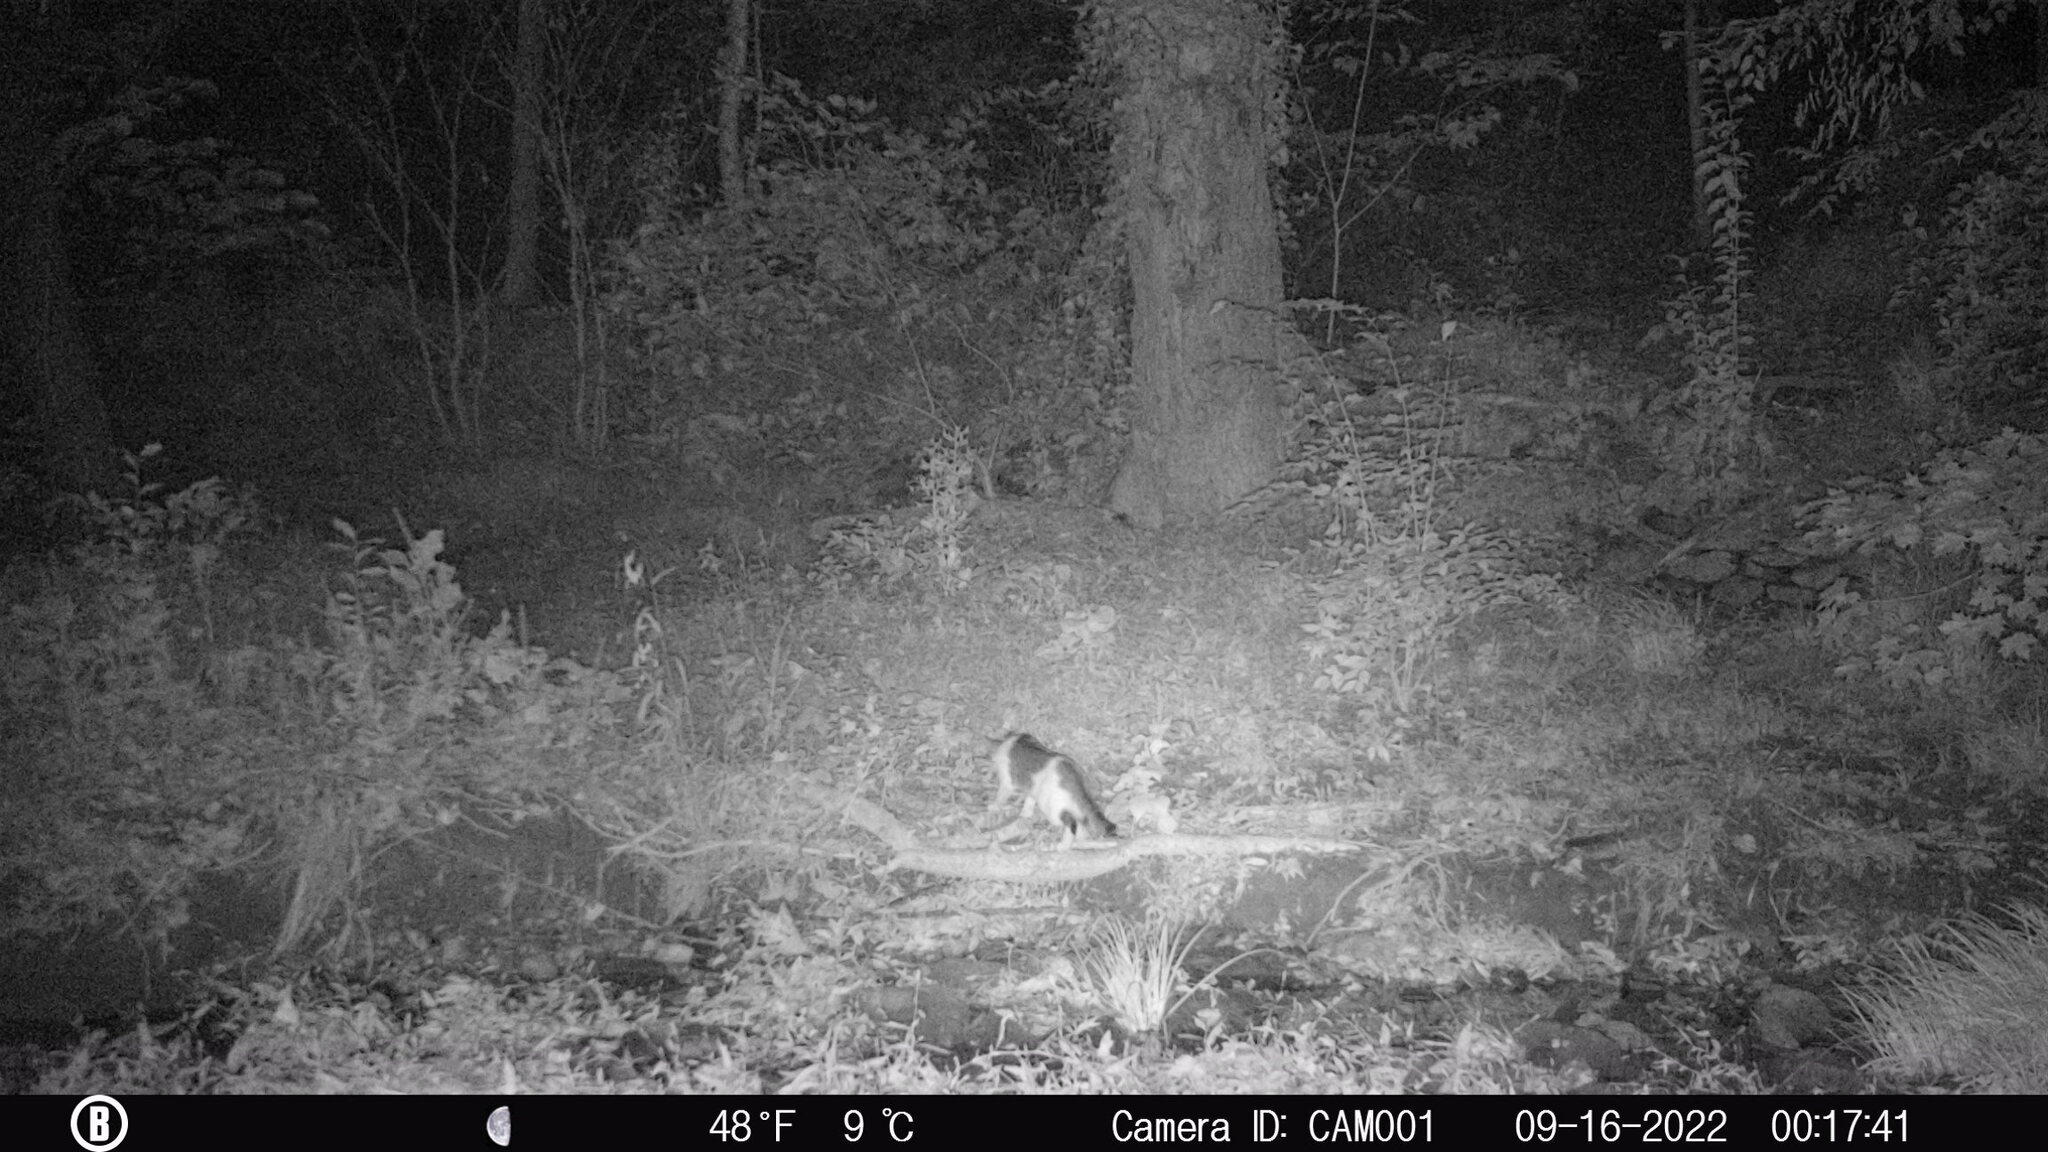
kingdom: Animalia
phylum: Chordata
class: Mammalia
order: Carnivora
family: Felidae
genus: Felis
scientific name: Felis catus
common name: Domestic cat
